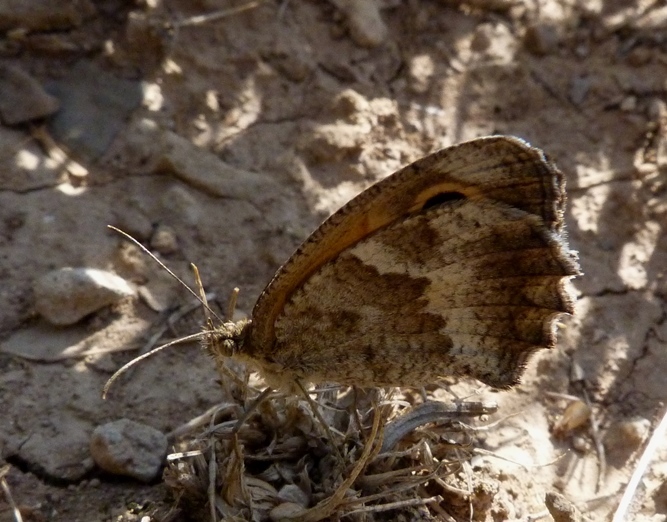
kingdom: Animalia
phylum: Arthropoda
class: Insecta
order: Lepidoptera
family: Nymphalidae
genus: Pyronia
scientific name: Pyronia cecilia
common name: Southern gatekeeper
